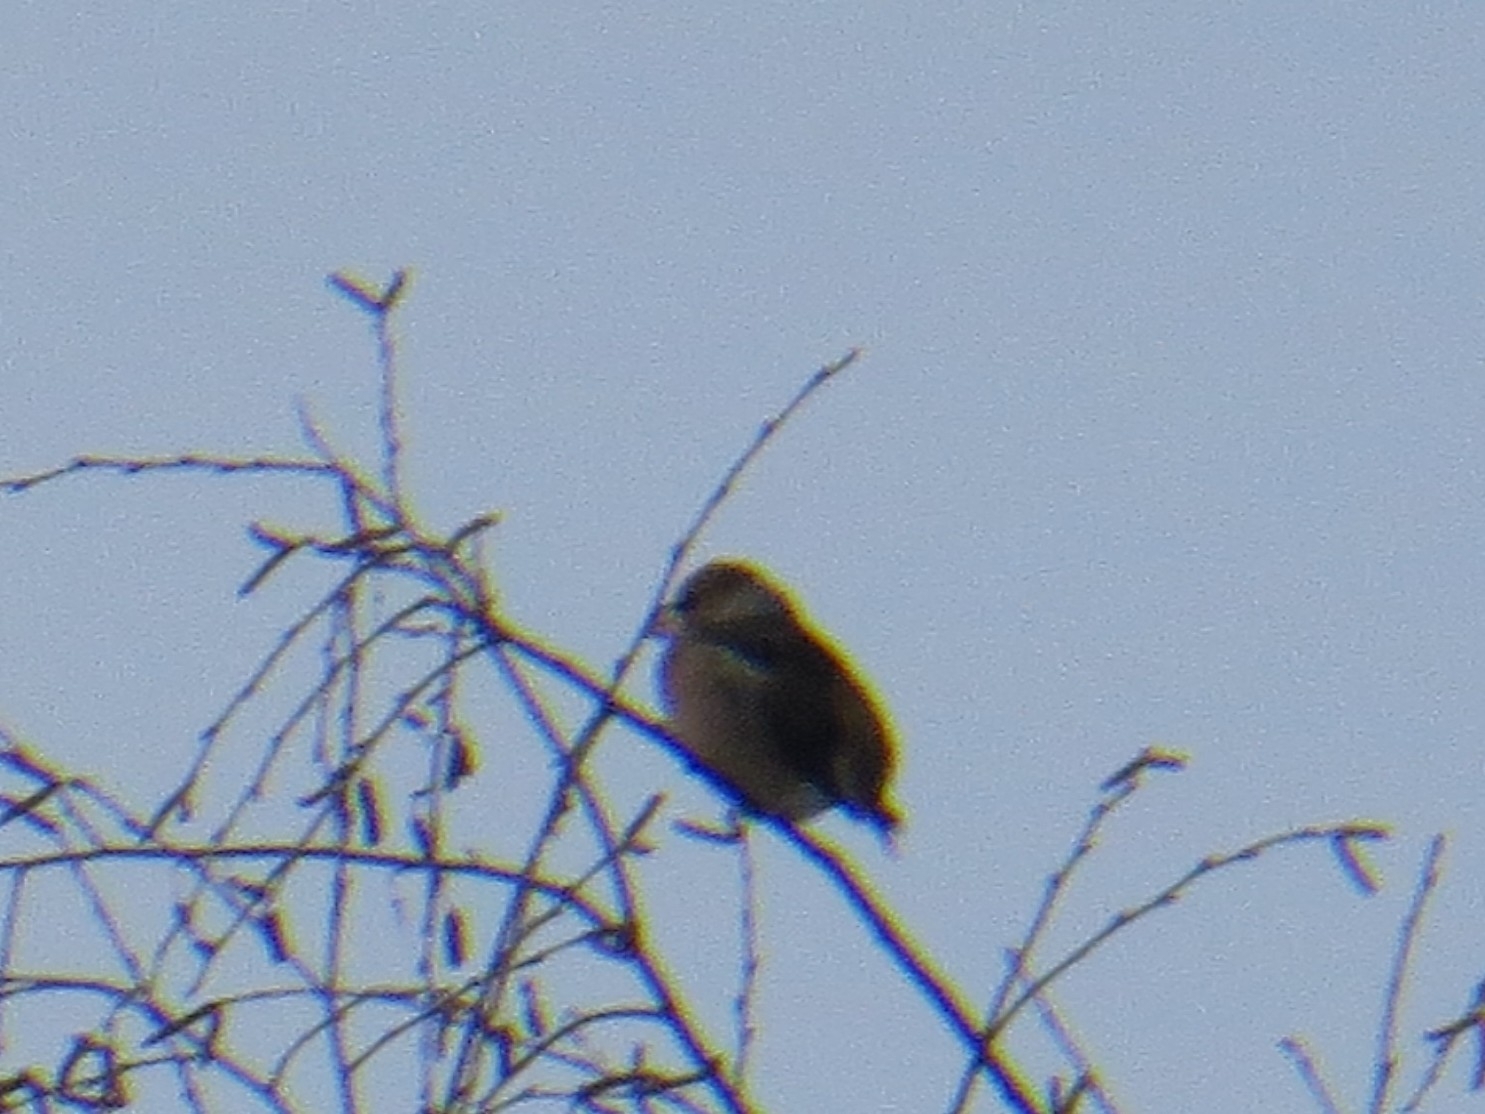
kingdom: Animalia
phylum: Chordata
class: Aves
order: Passeriformes
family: Fringillidae
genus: Coccothraustes
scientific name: Coccothraustes coccothraustes
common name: Hawfinch
